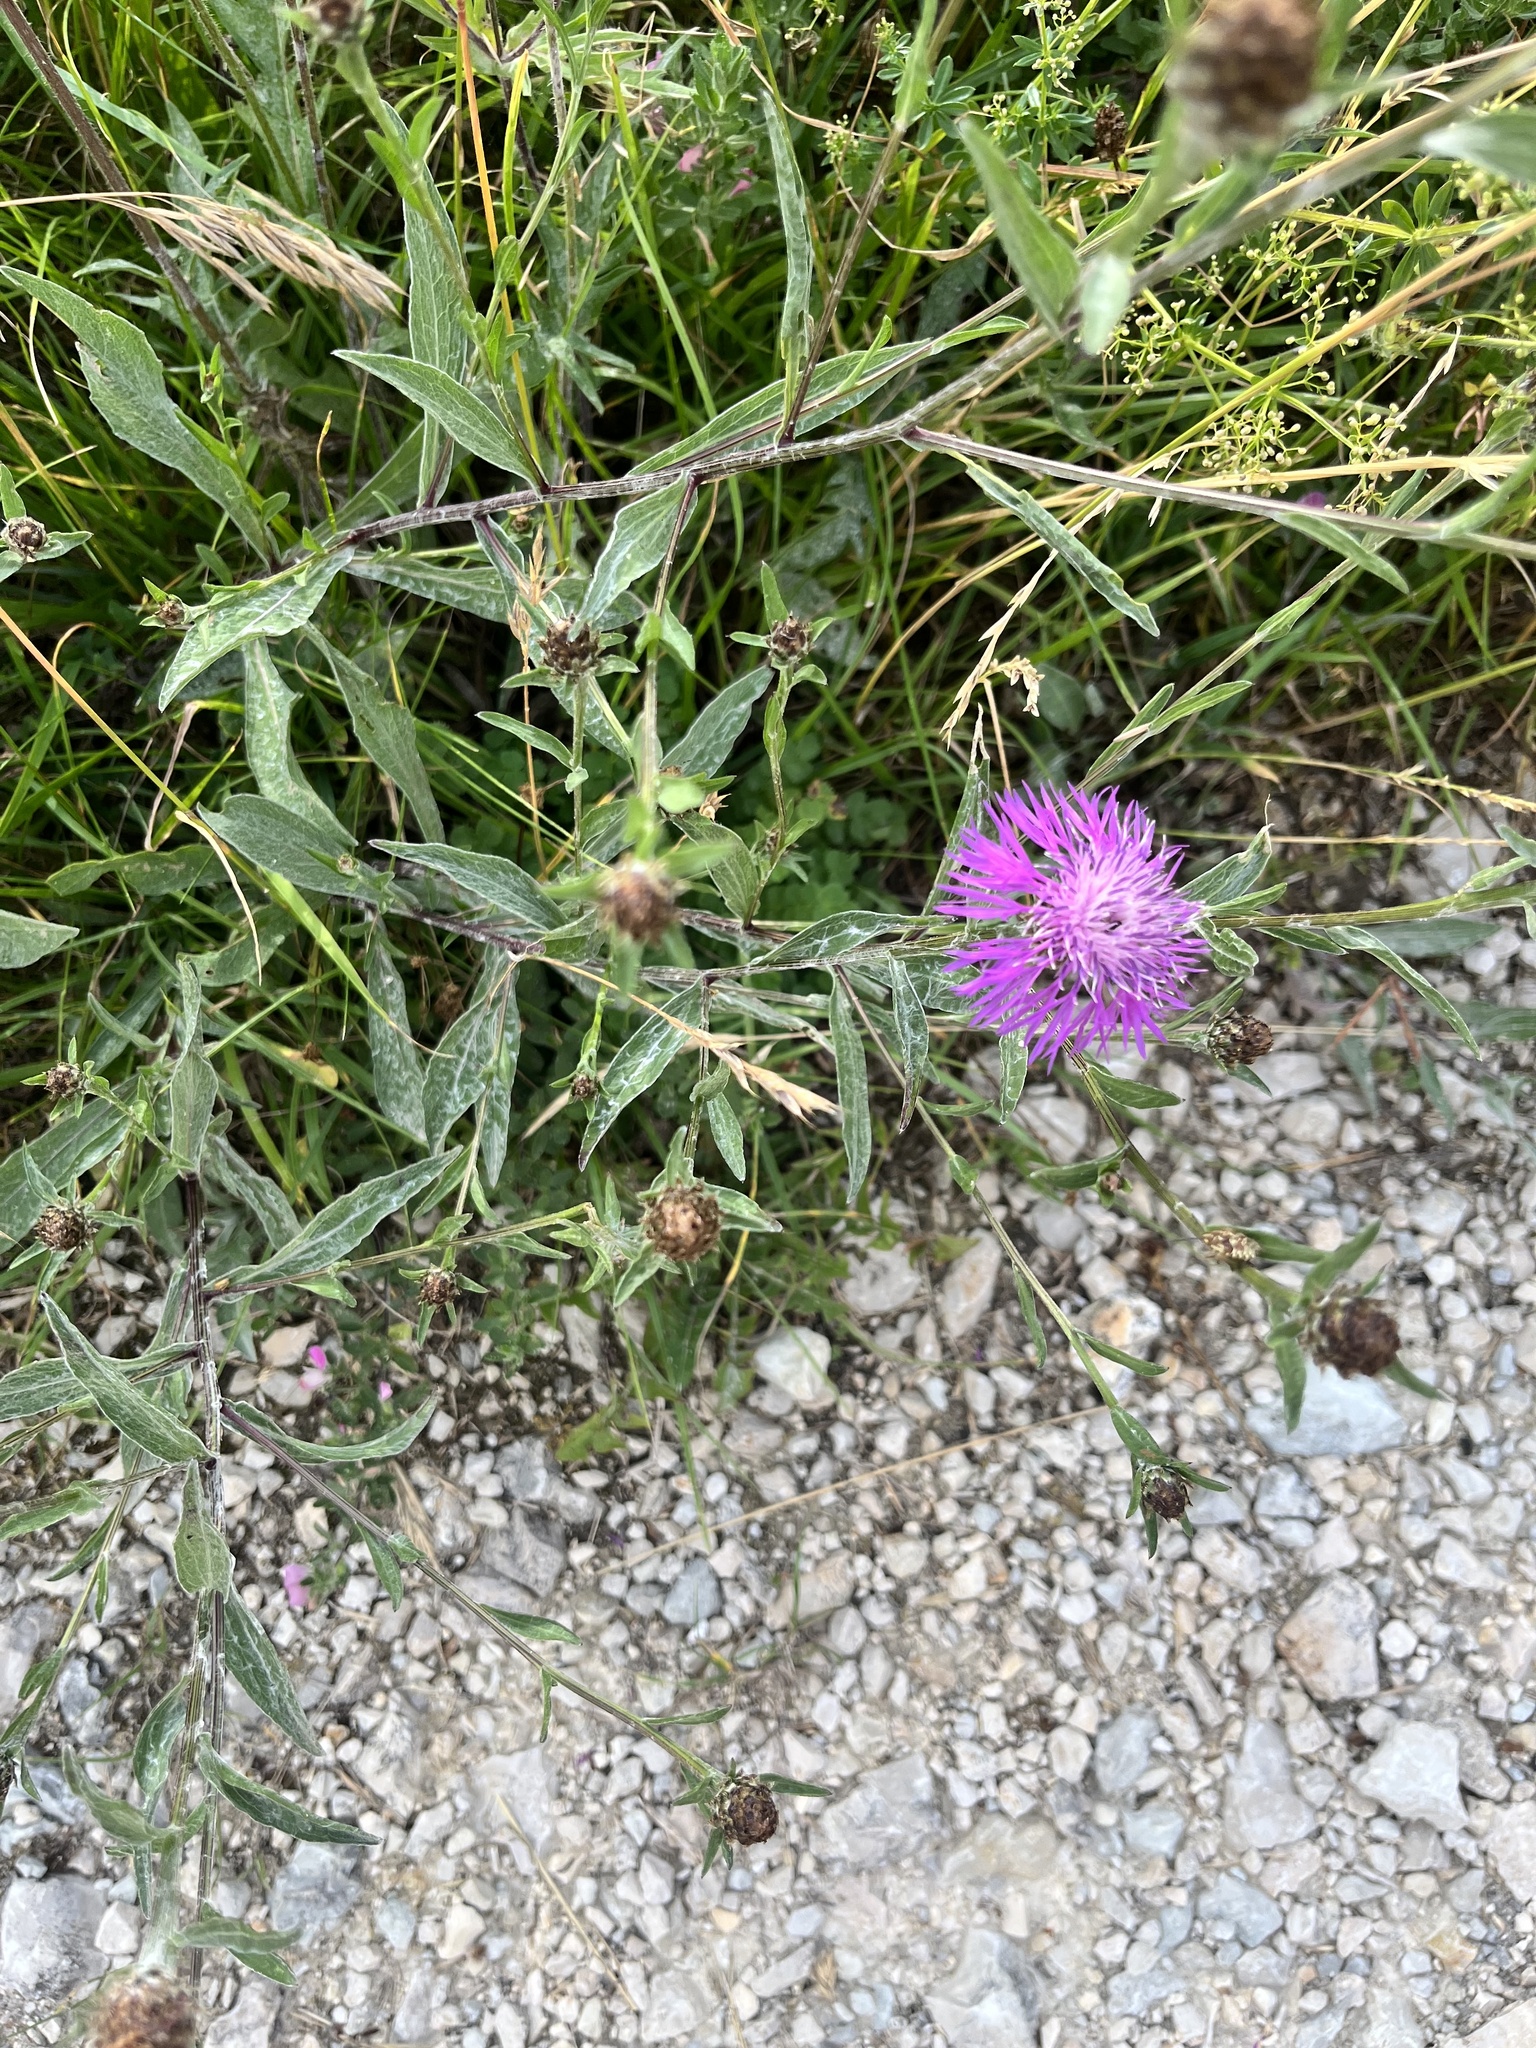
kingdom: Plantae
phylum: Tracheophyta
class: Magnoliopsida
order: Asterales
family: Asteraceae
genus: Centaurea
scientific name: Centaurea jacea
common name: Brown knapweed
